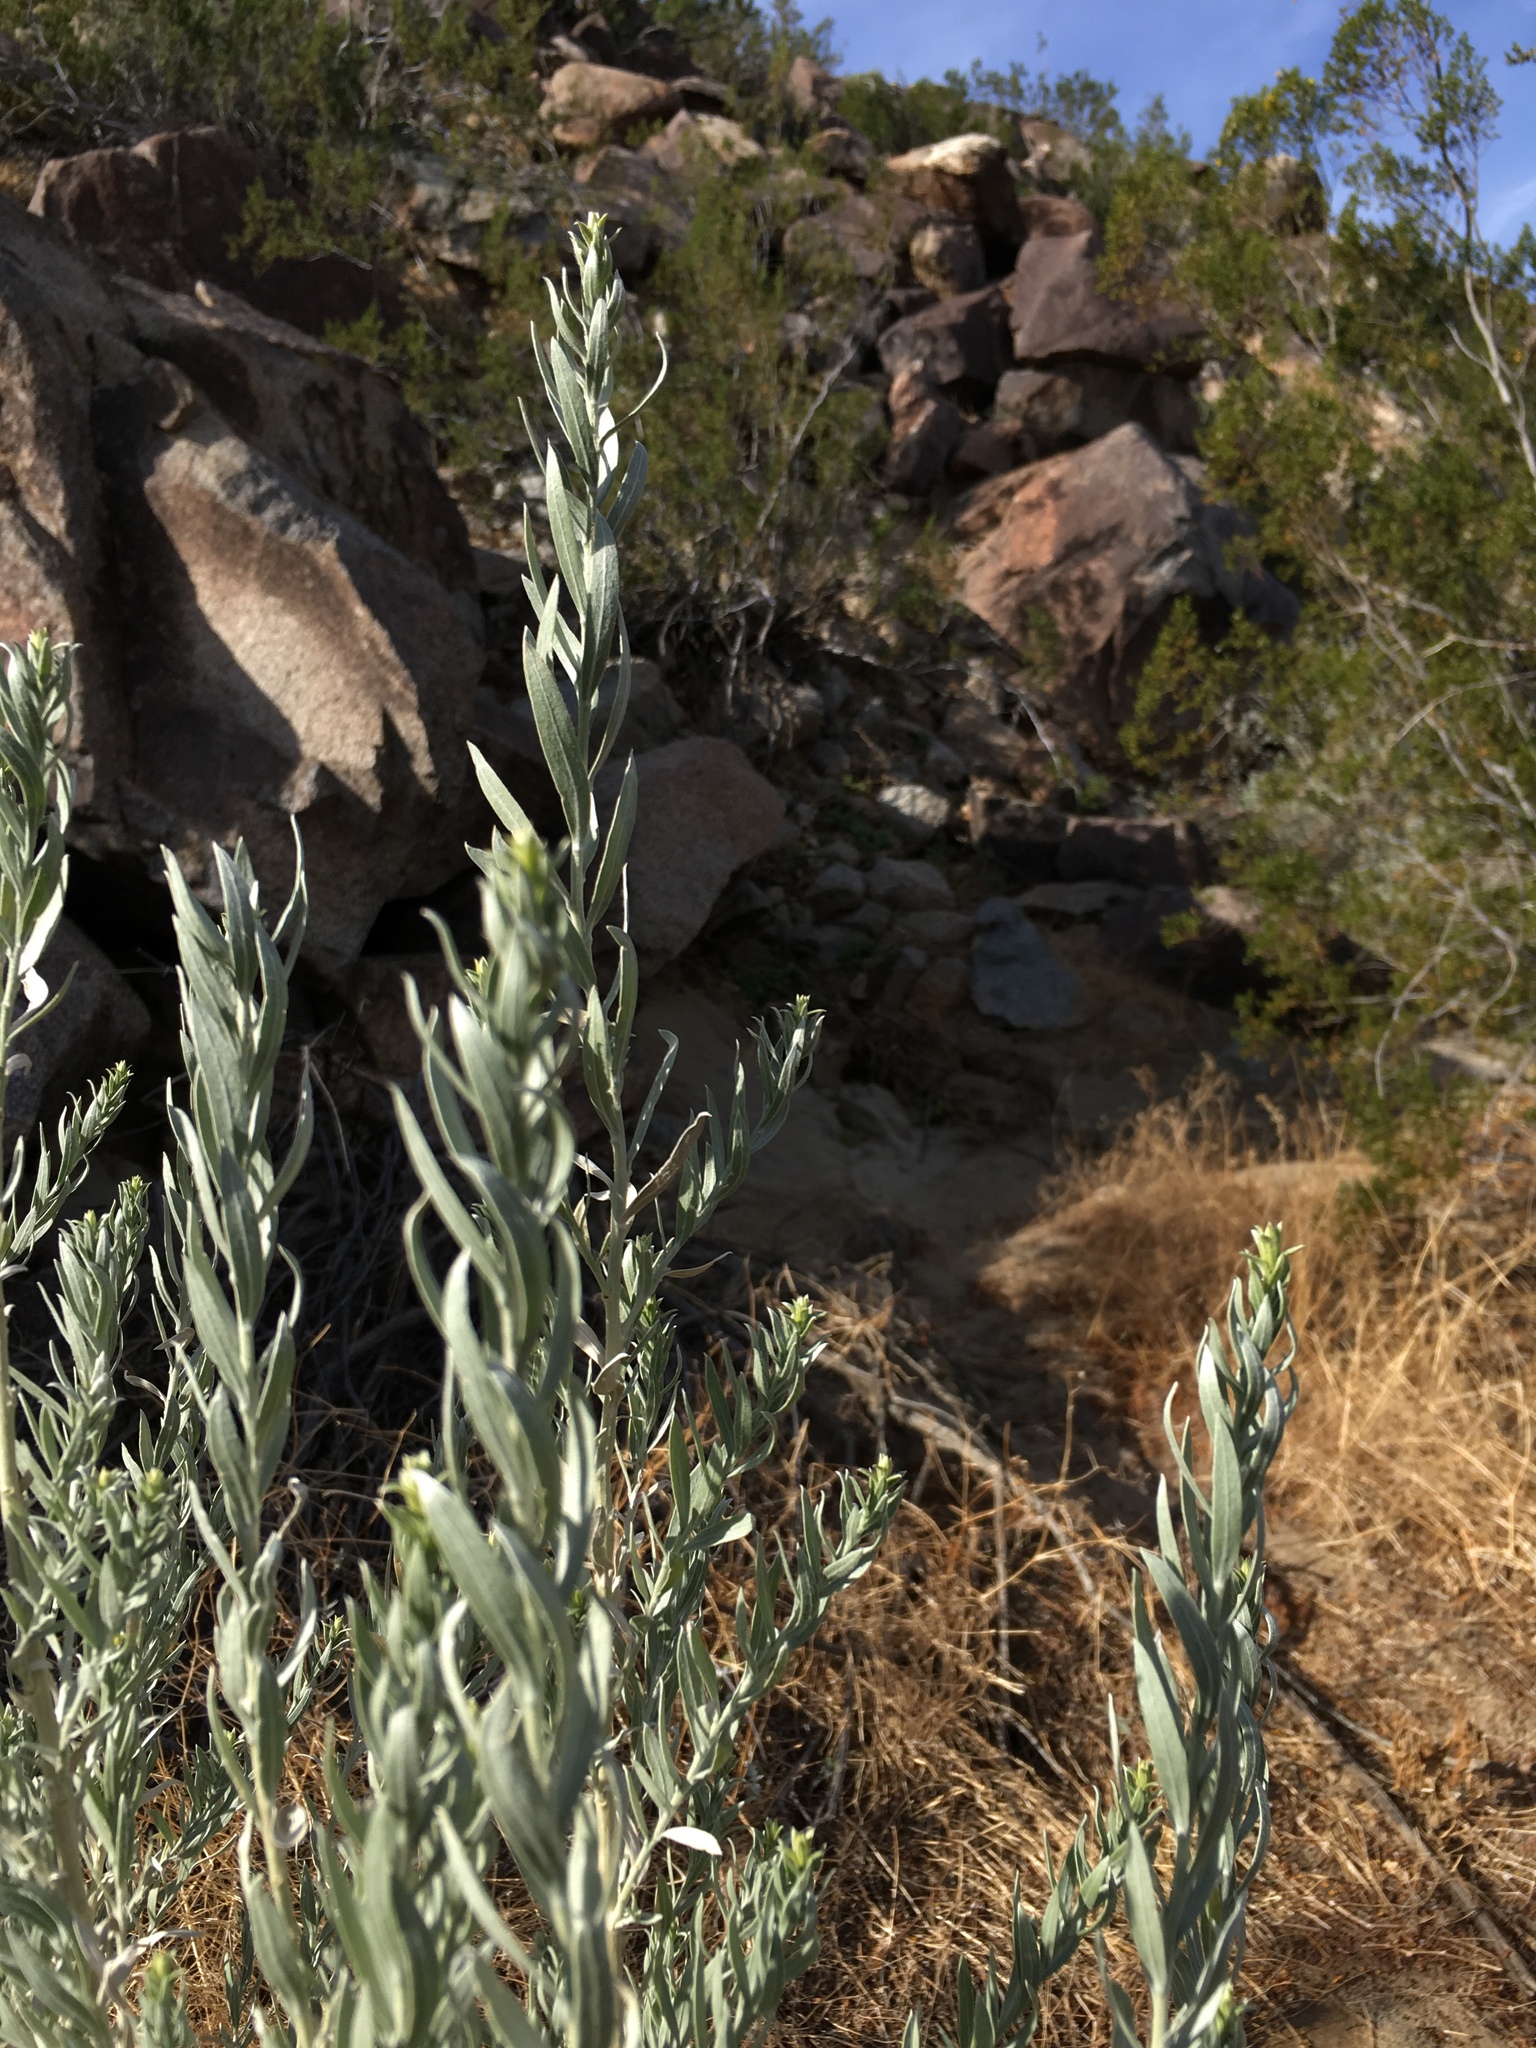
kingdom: Plantae
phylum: Tracheophyta
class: Magnoliopsida
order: Asterales
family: Asteraceae
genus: Pluchea
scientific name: Pluchea sericea
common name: Arrow-weed
